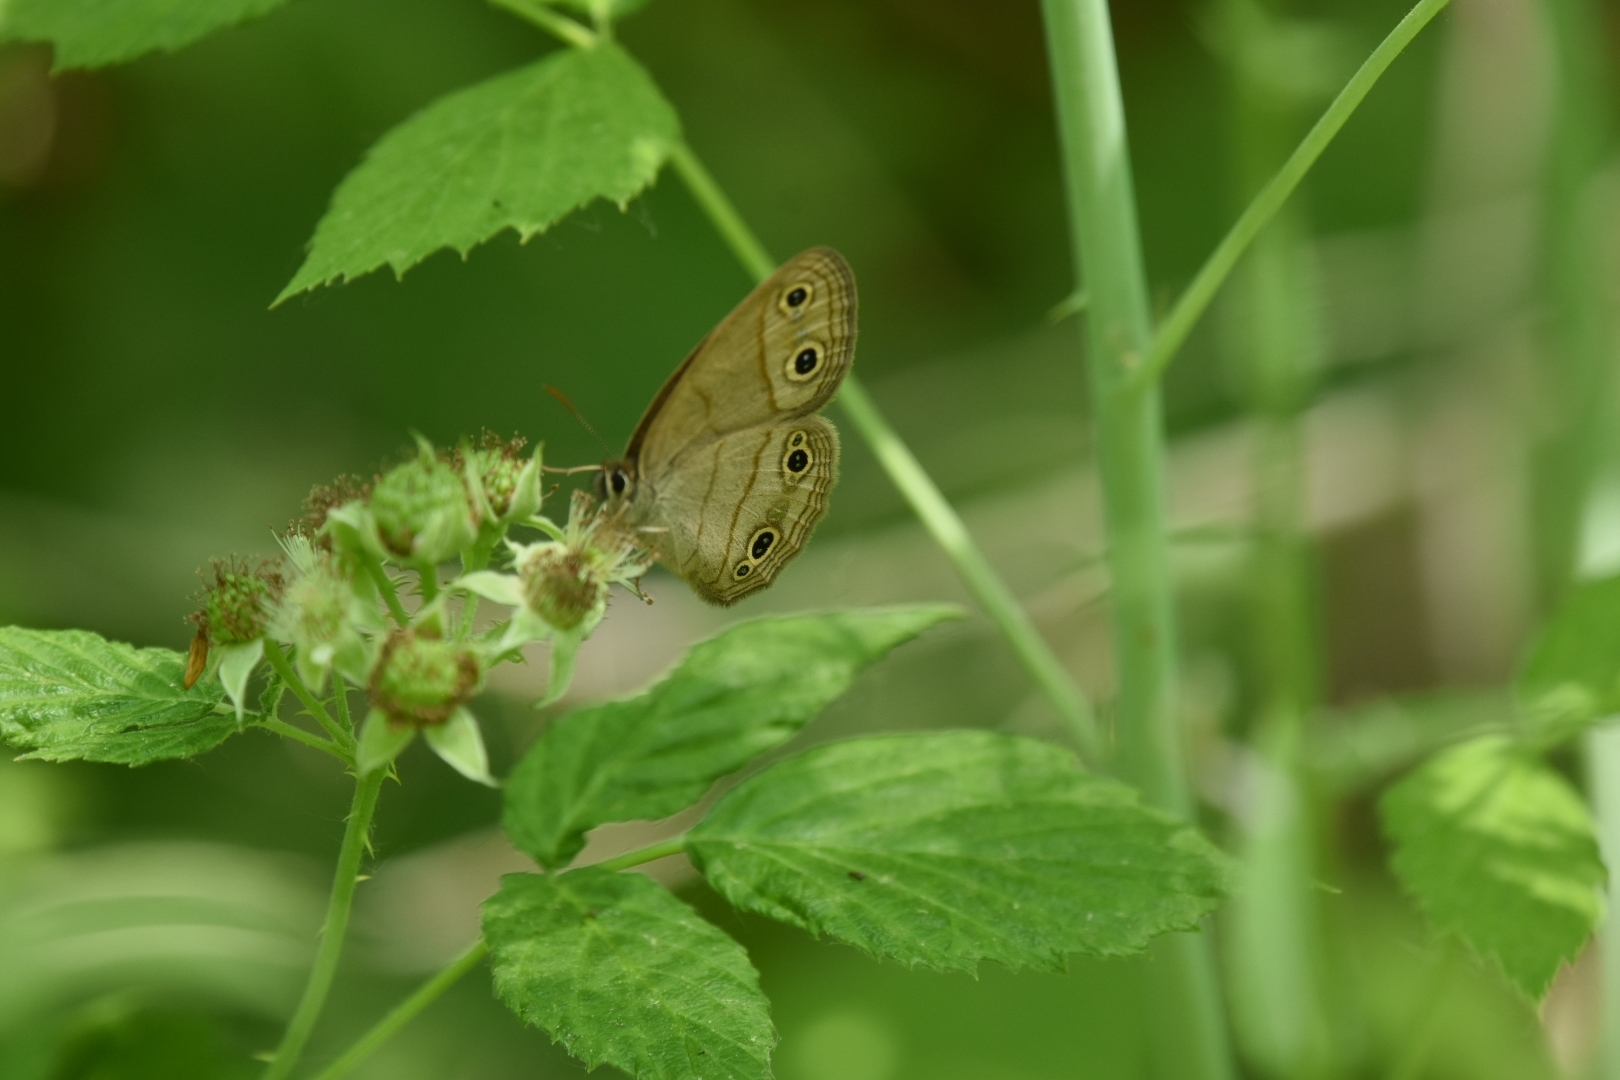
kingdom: Animalia
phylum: Arthropoda
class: Insecta
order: Lepidoptera
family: Nymphalidae
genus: Euptychia
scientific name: Euptychia cymela
